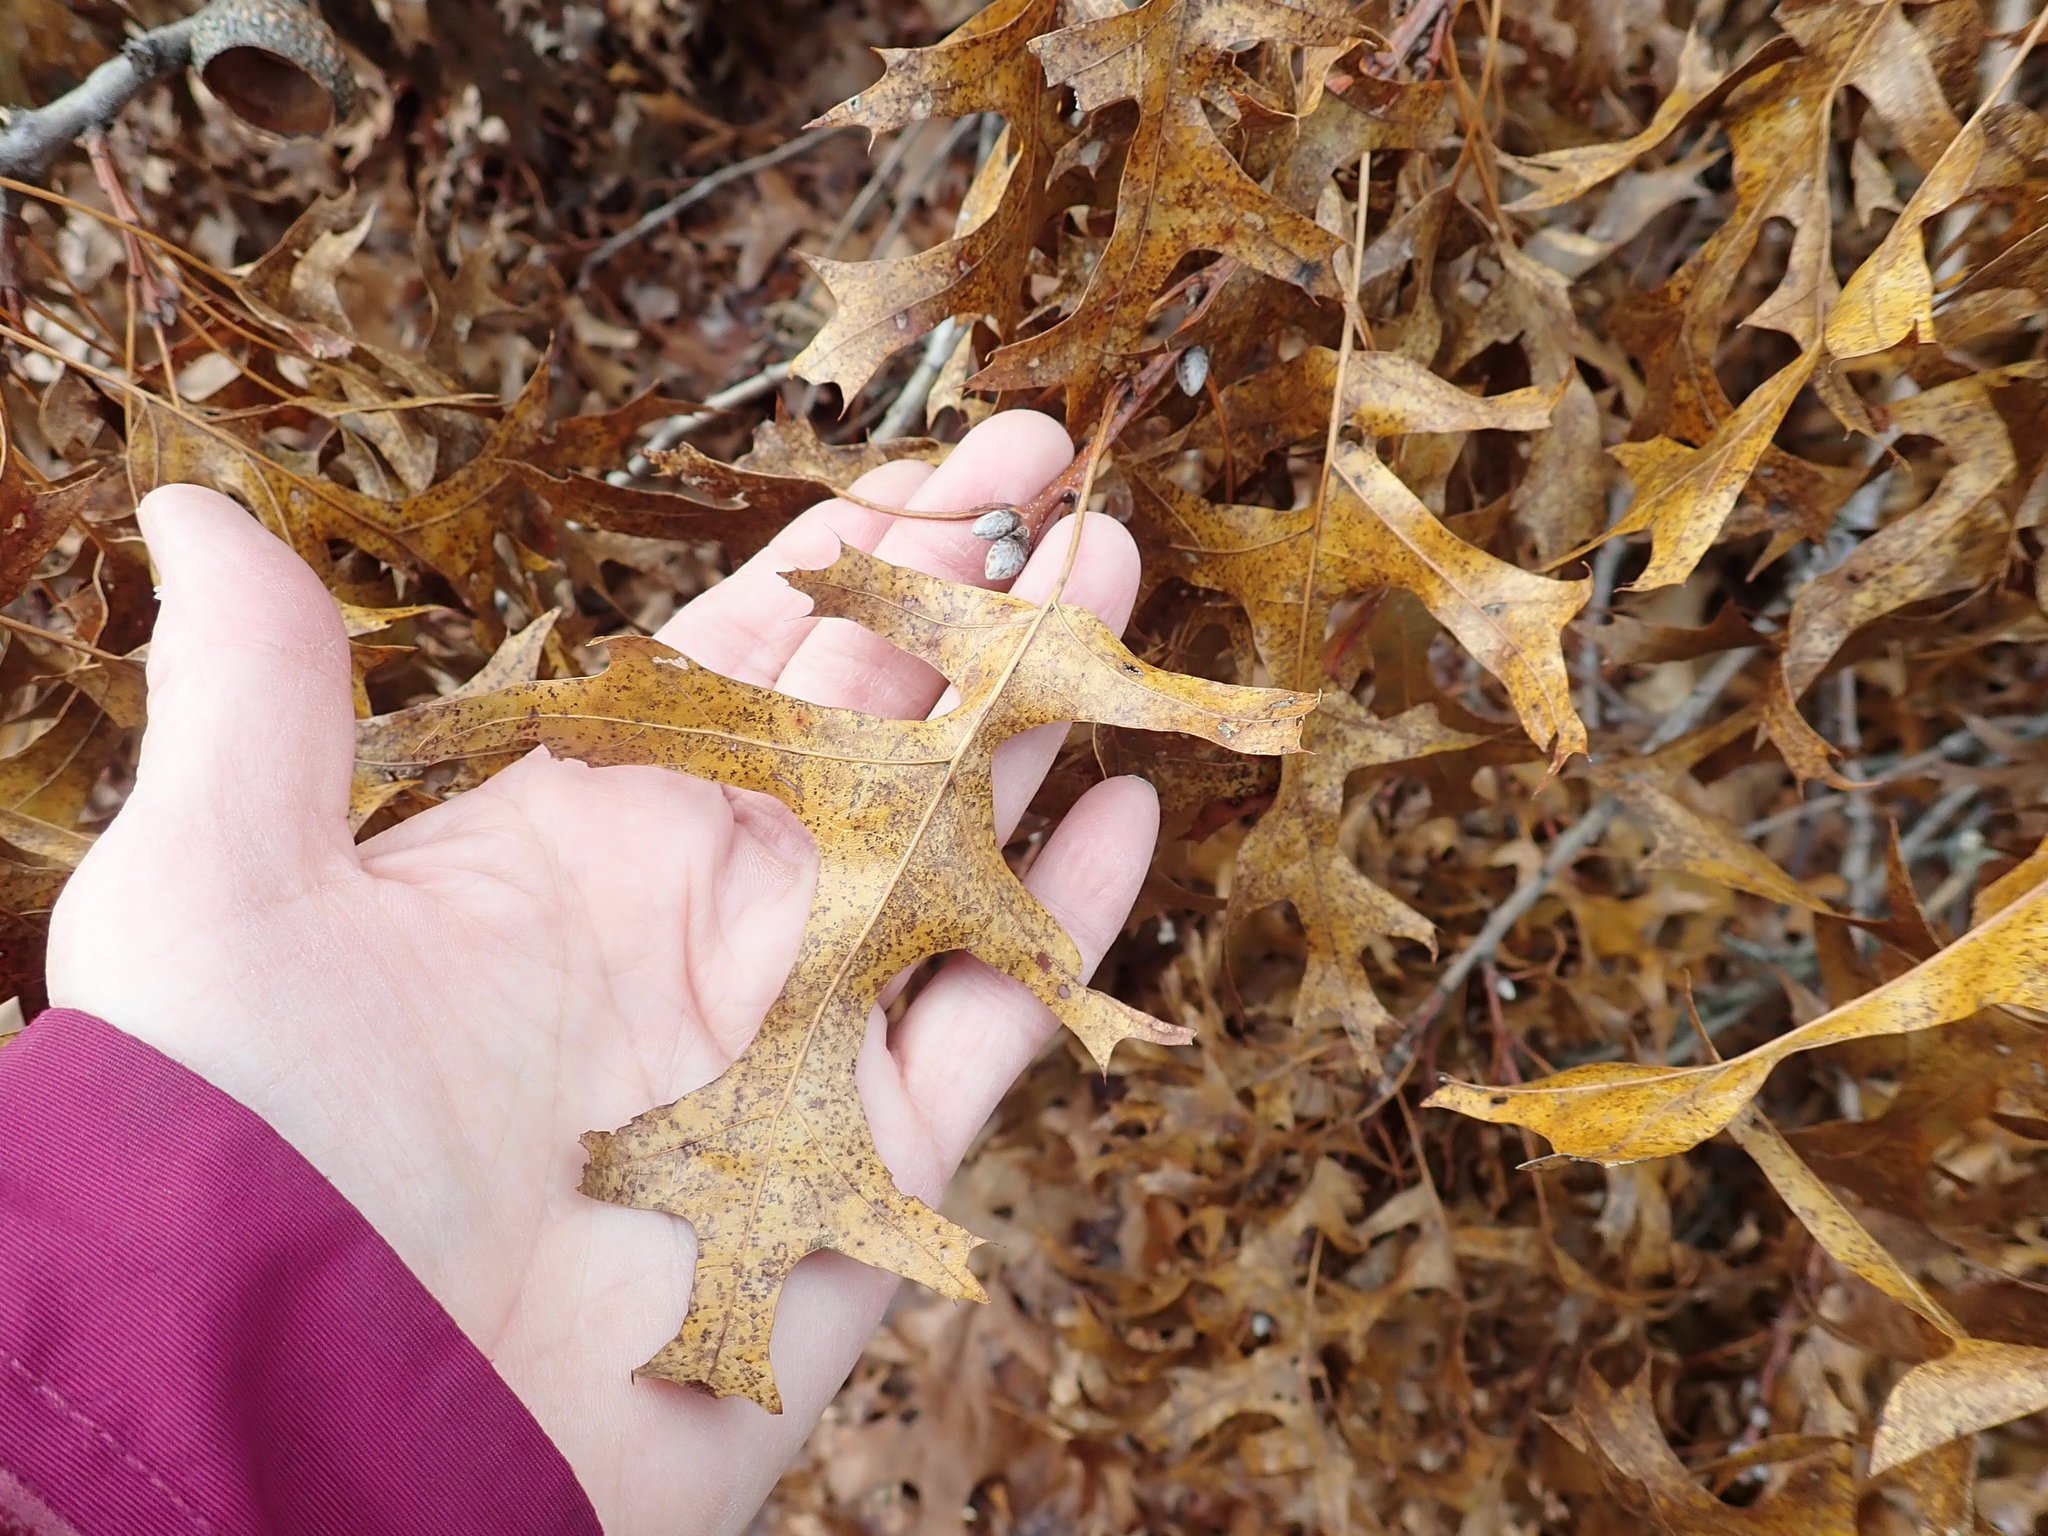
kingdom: Plantae
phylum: Tracheophyta
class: Magnoliopsida
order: Fagales
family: Fagaceae
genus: Quercus
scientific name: Quercus coccinea
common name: Scarlet oak
